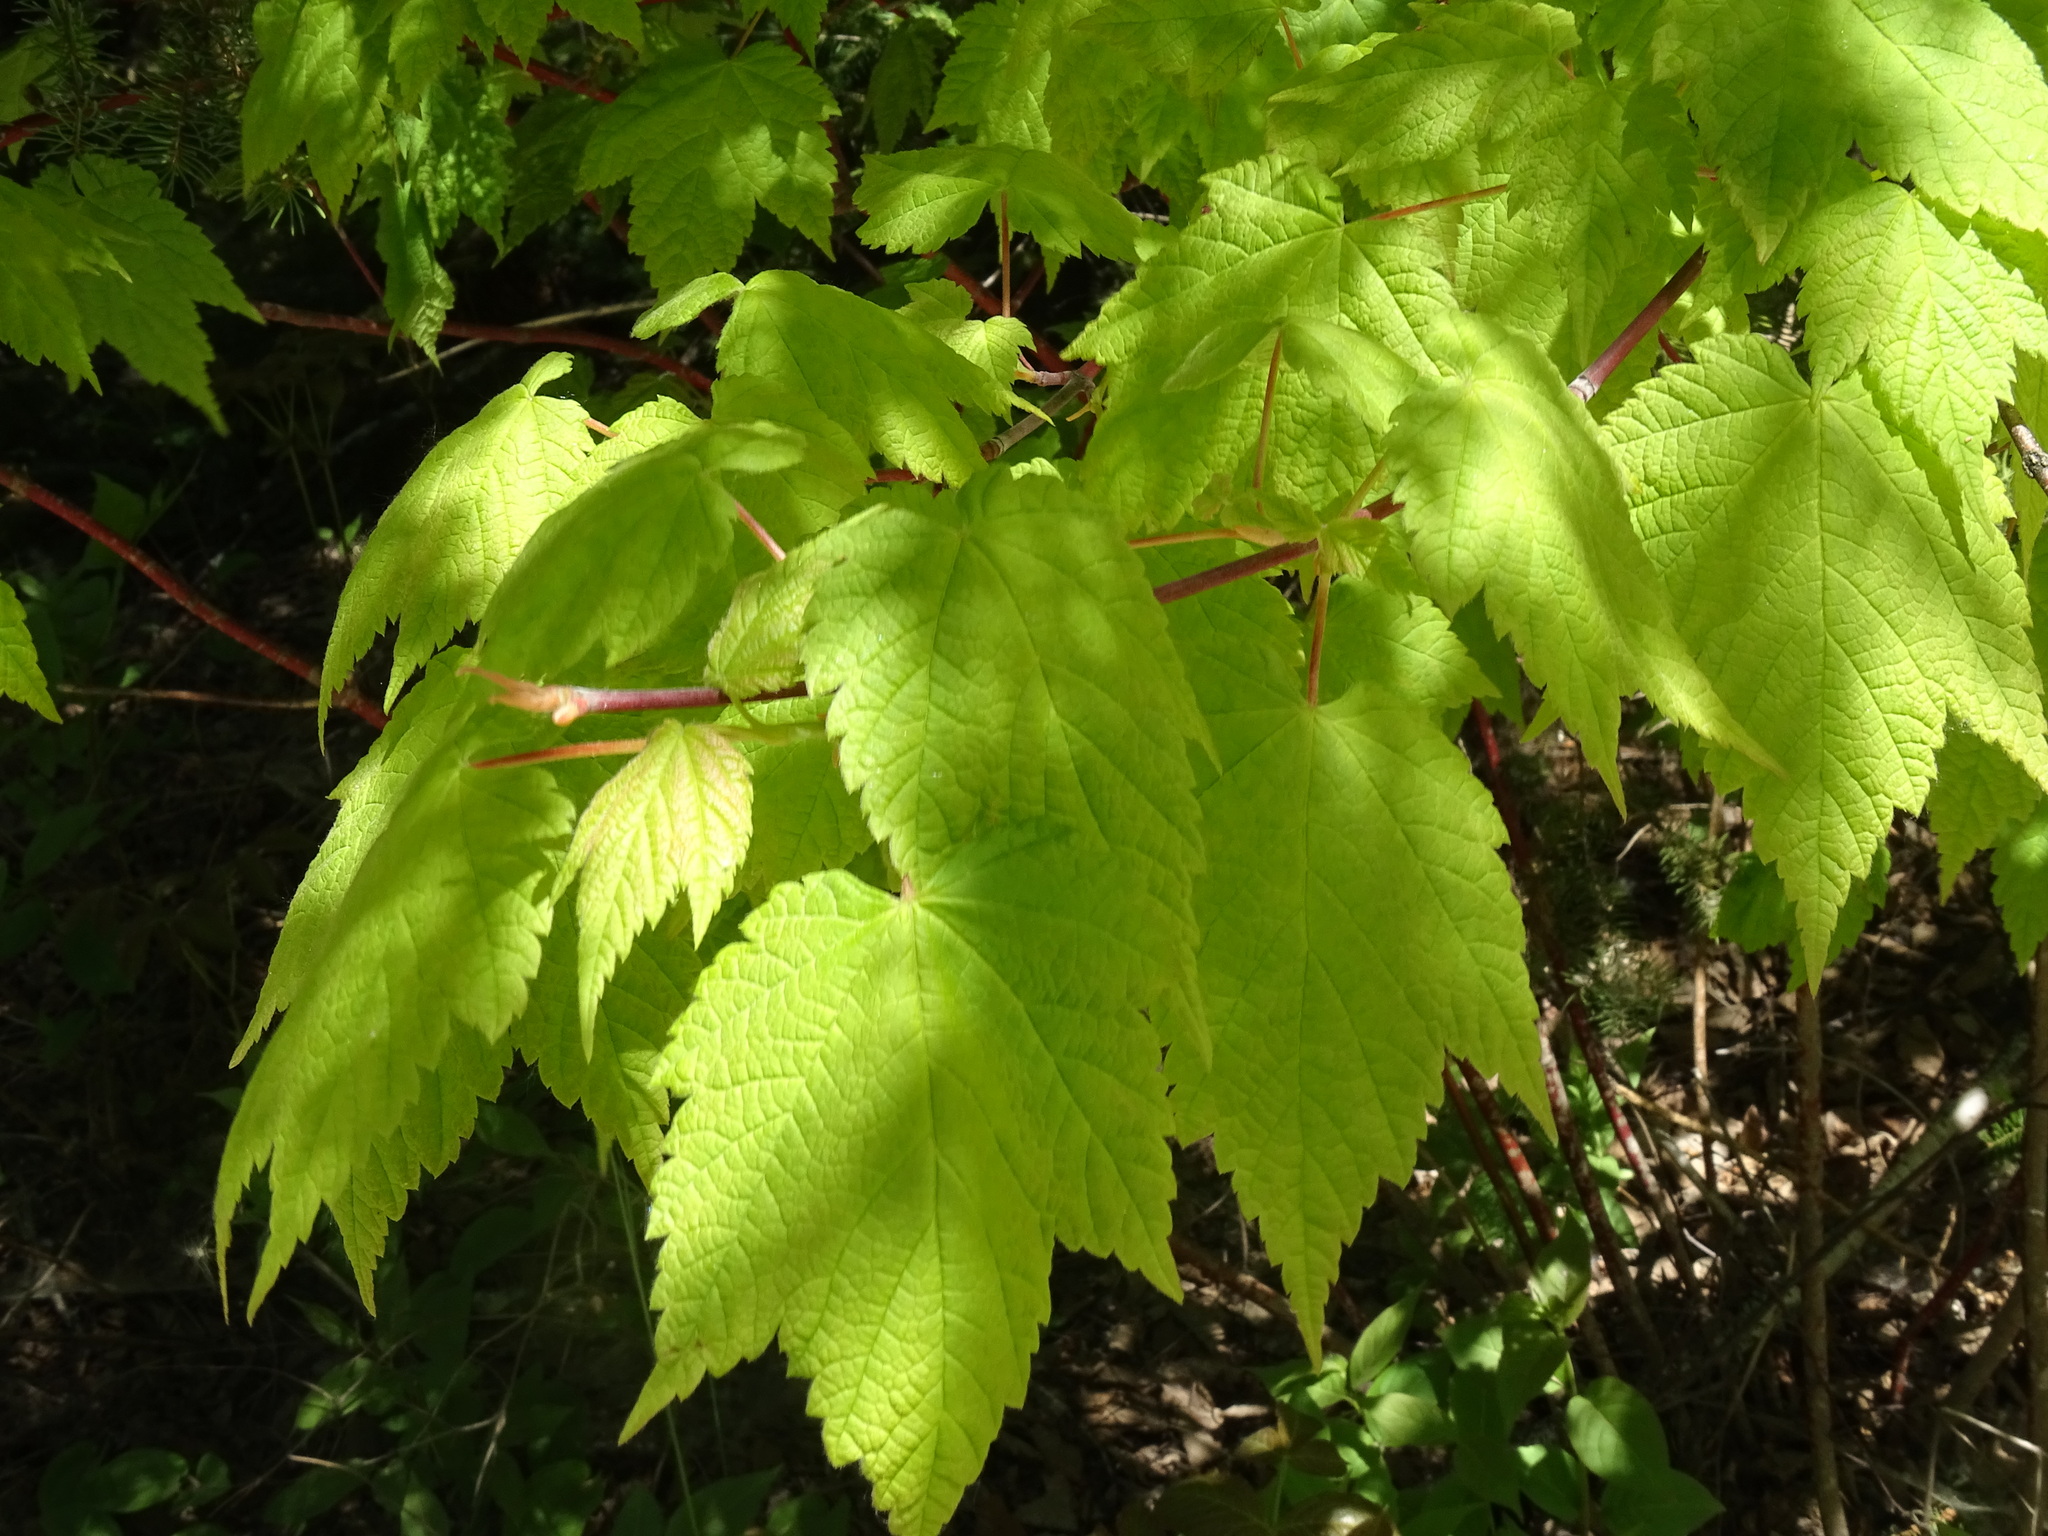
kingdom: Plantae
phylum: Tracheophyta
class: Magnoliopsida
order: Sapindales
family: Sapindaceae
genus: Acer
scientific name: Acer spicatum
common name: Mountain maple
